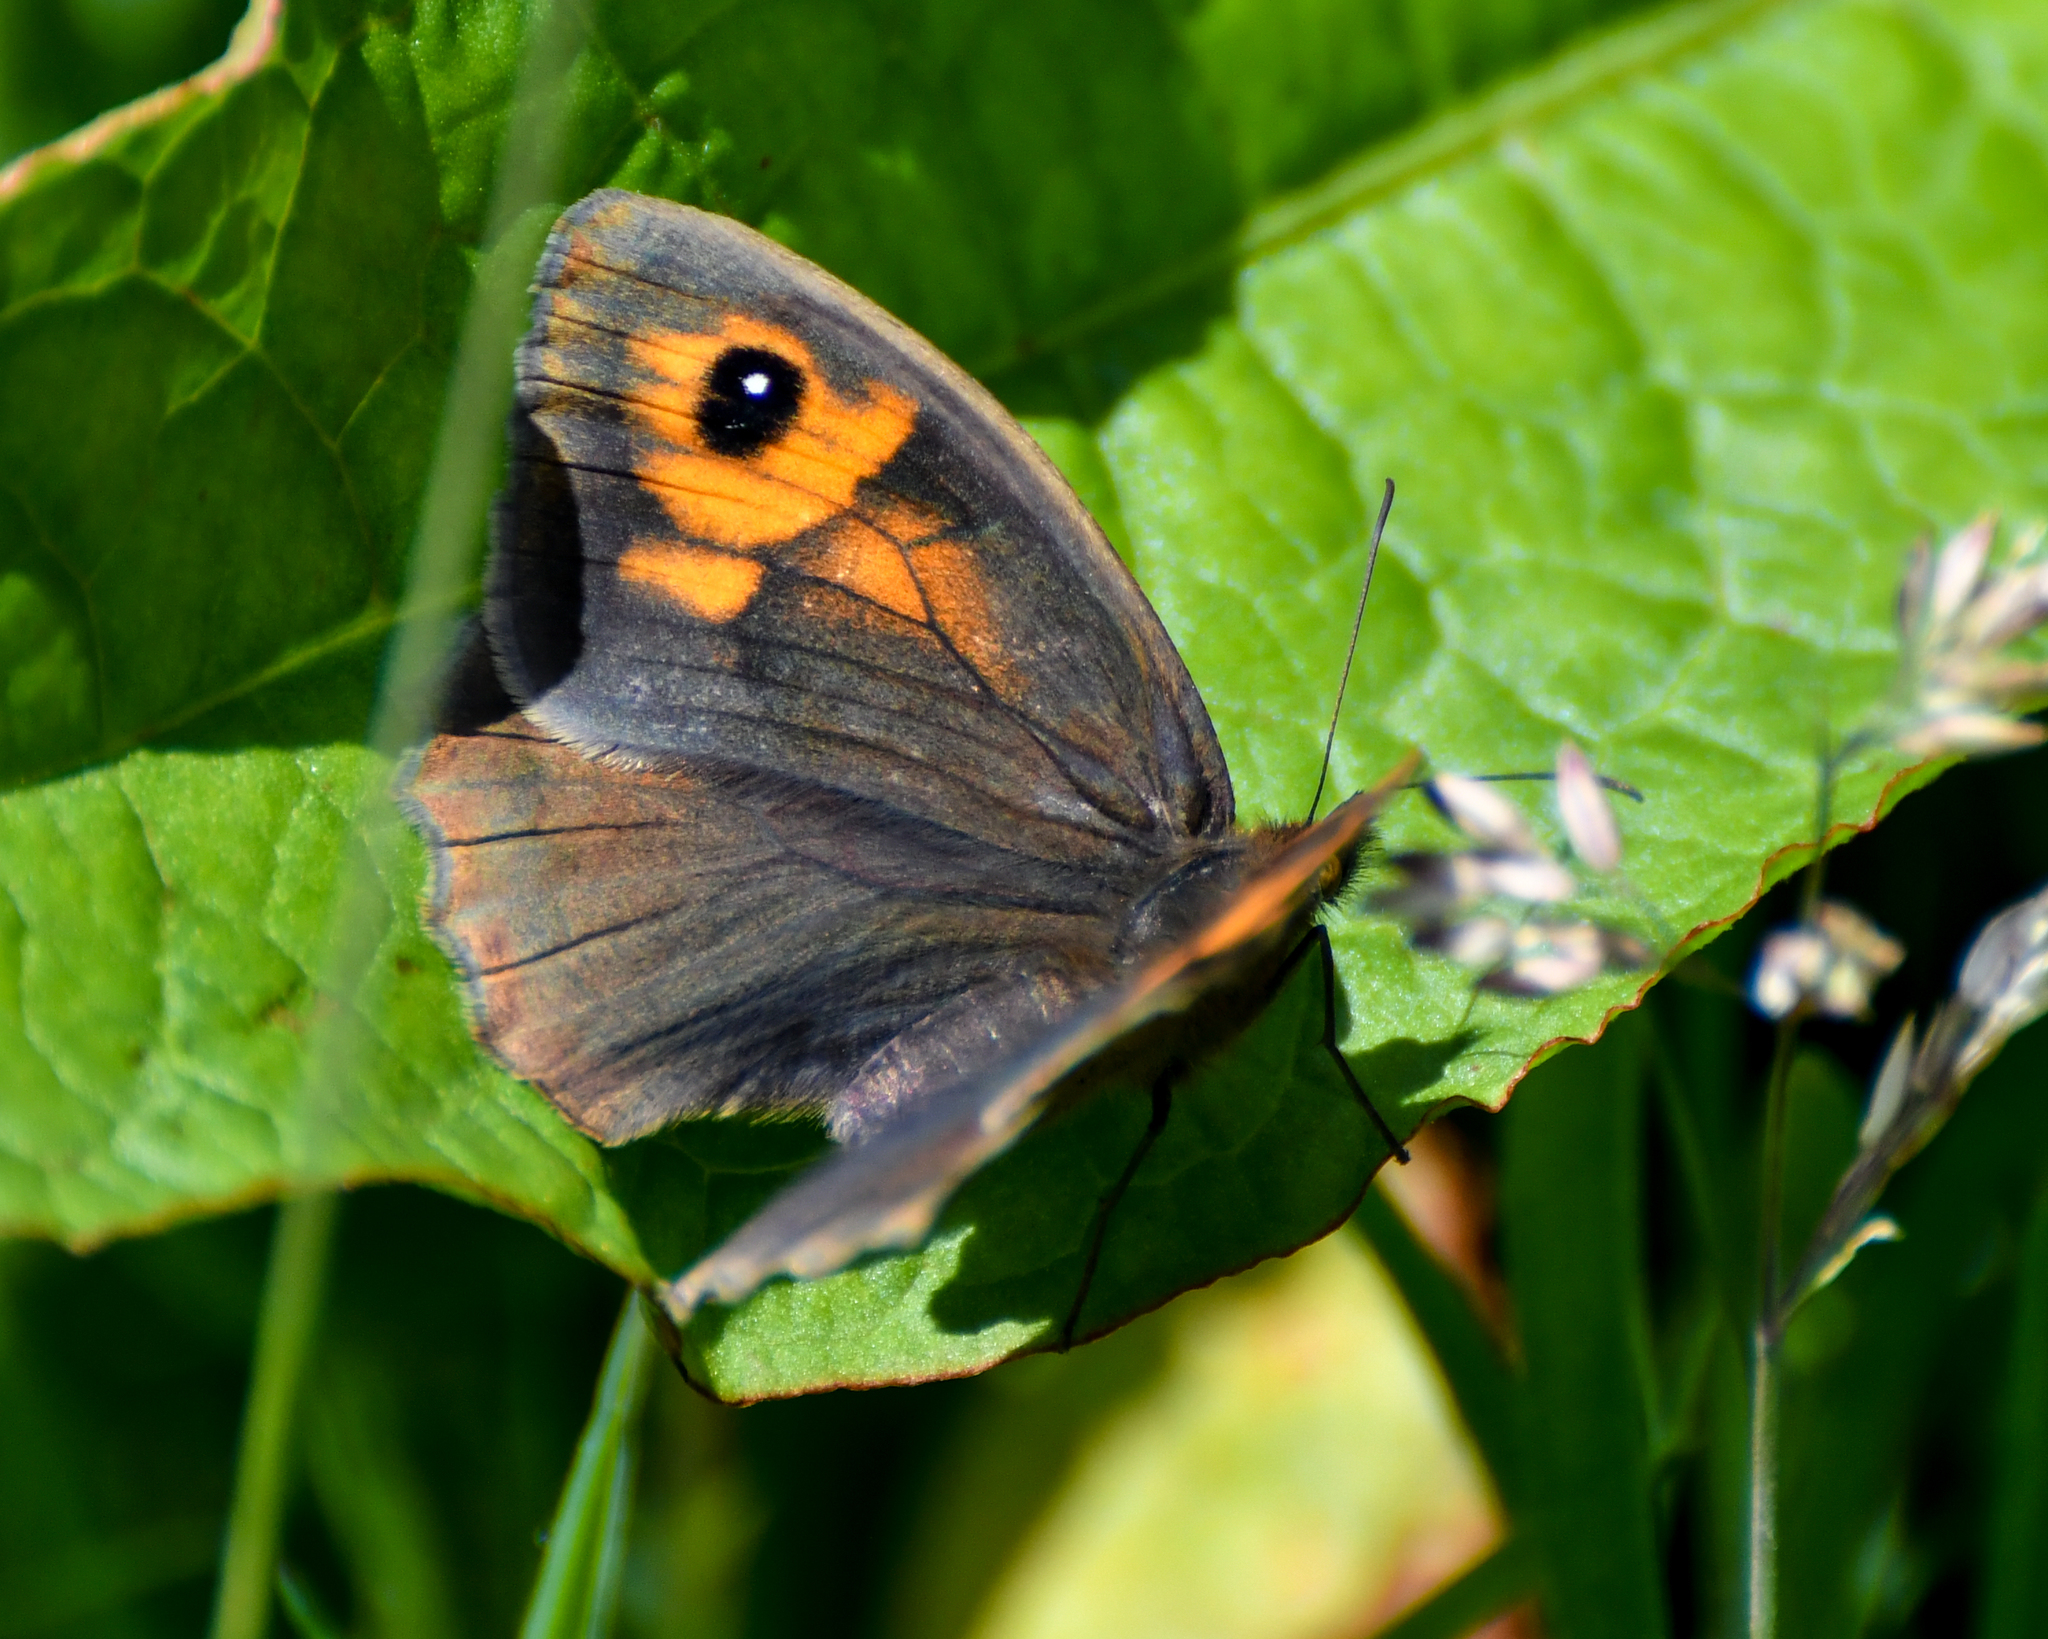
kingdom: Animalia
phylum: Arthropoda
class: Insecta
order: Lepidoptera
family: Nymphalidae
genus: Maniola
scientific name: Maniola jurtina
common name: Meadow brown
